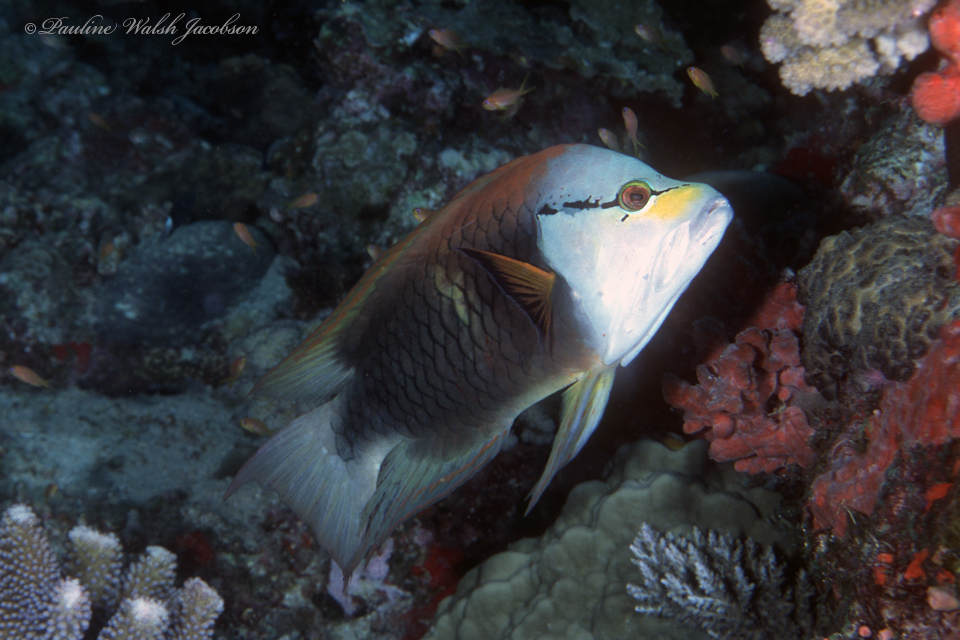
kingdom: Animalia
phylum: Chordata
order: Perciformes
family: Labridae
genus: Epibulus
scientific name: Epibulus insidiator
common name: Slingjaw wrasse
